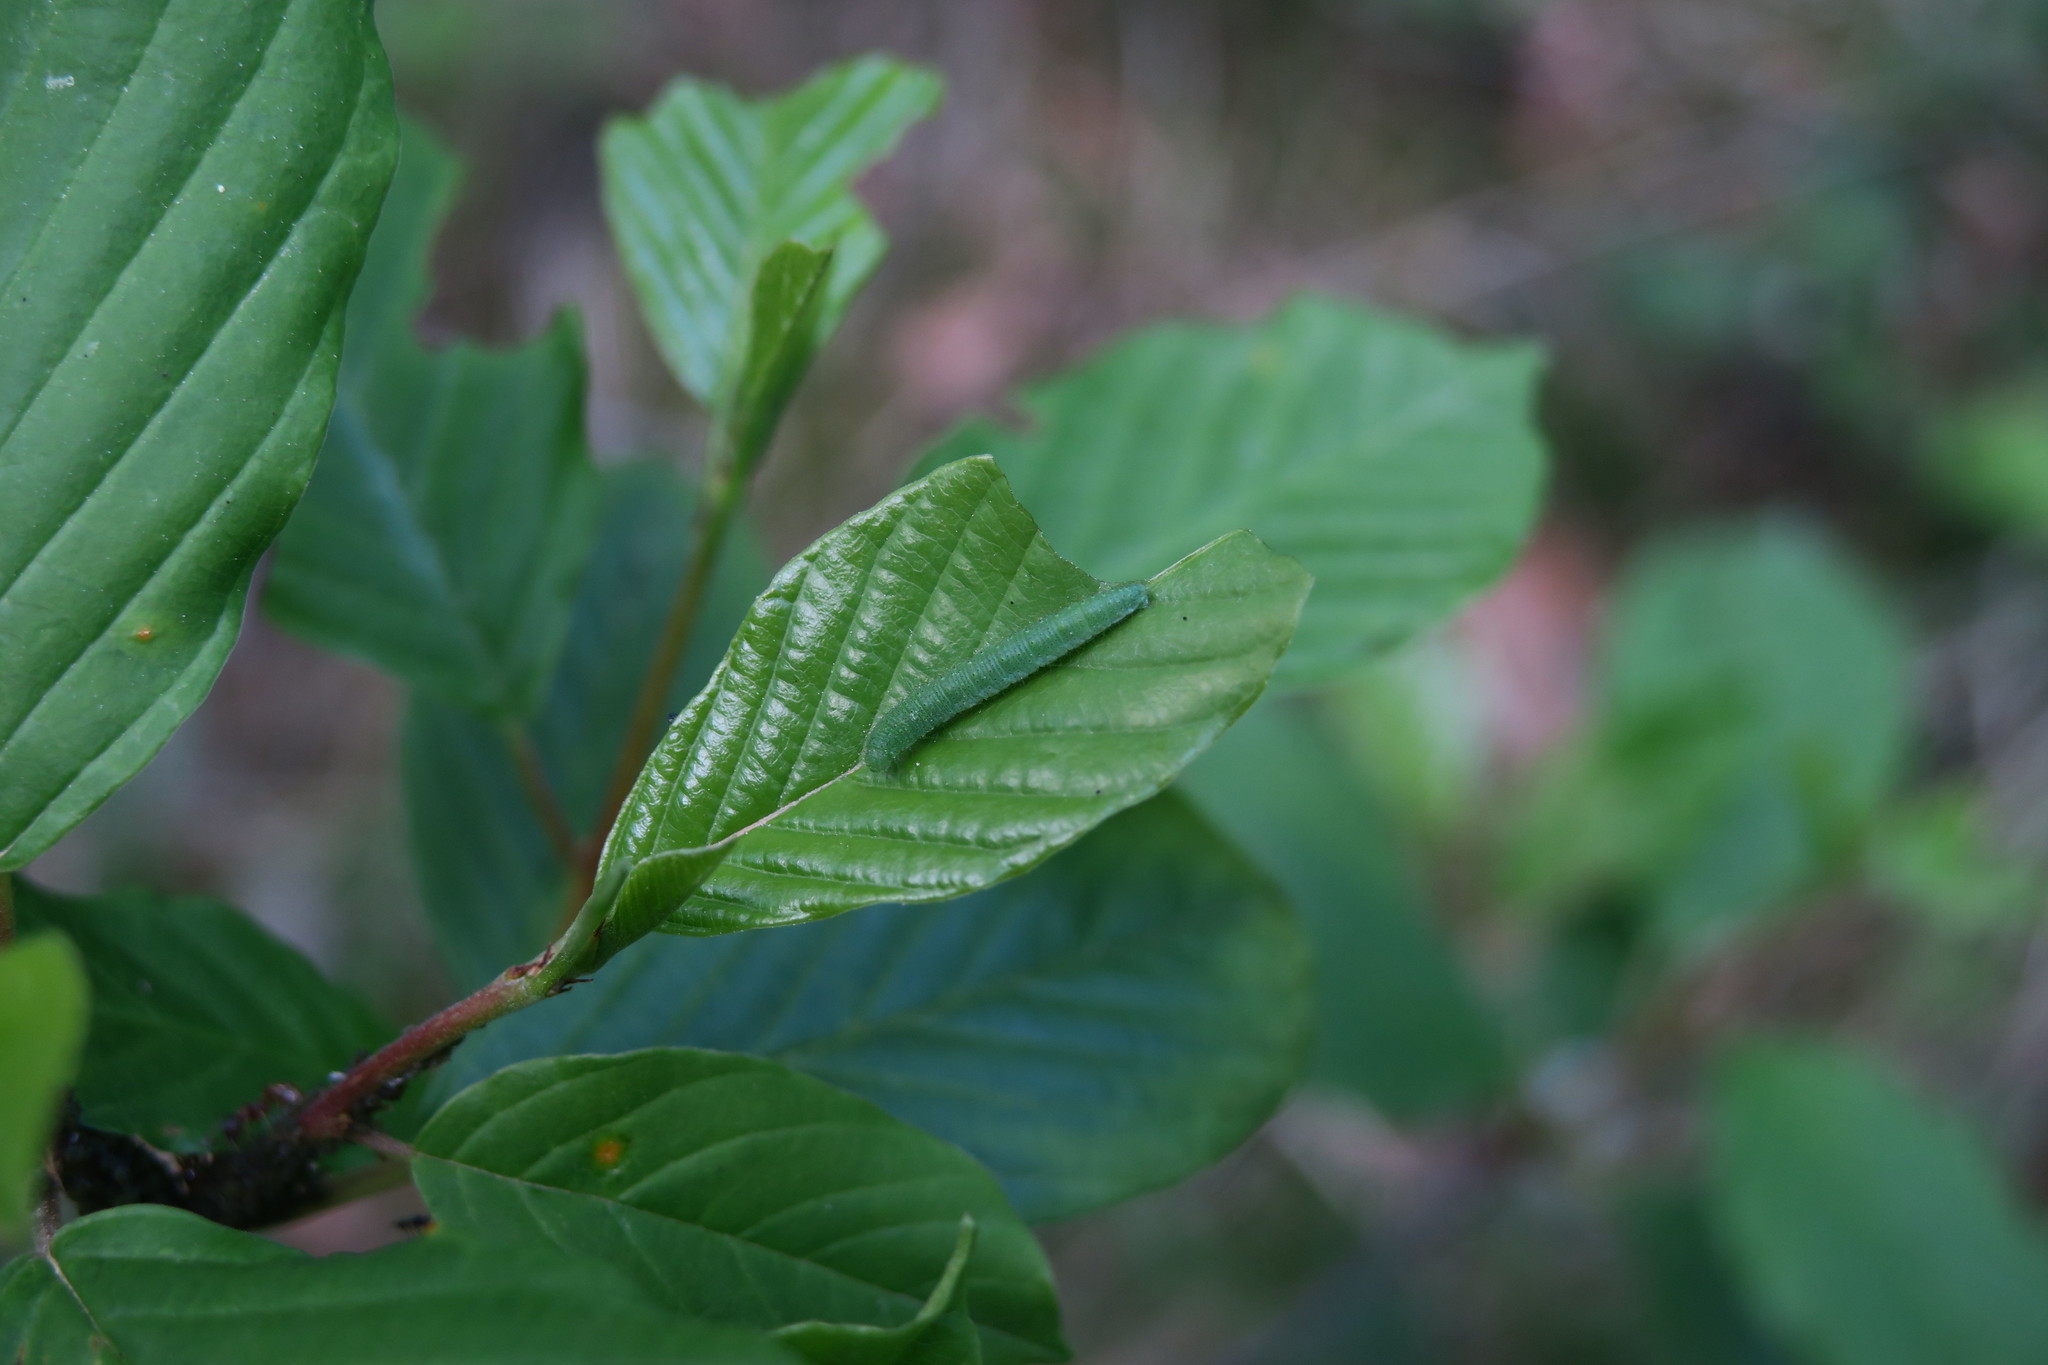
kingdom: Animalia
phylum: Arthropoda
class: Insecta
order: Lepidoptera
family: Pieridae
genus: Gonepteryx
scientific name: Gonepteryx rhamni
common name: Brimstone
